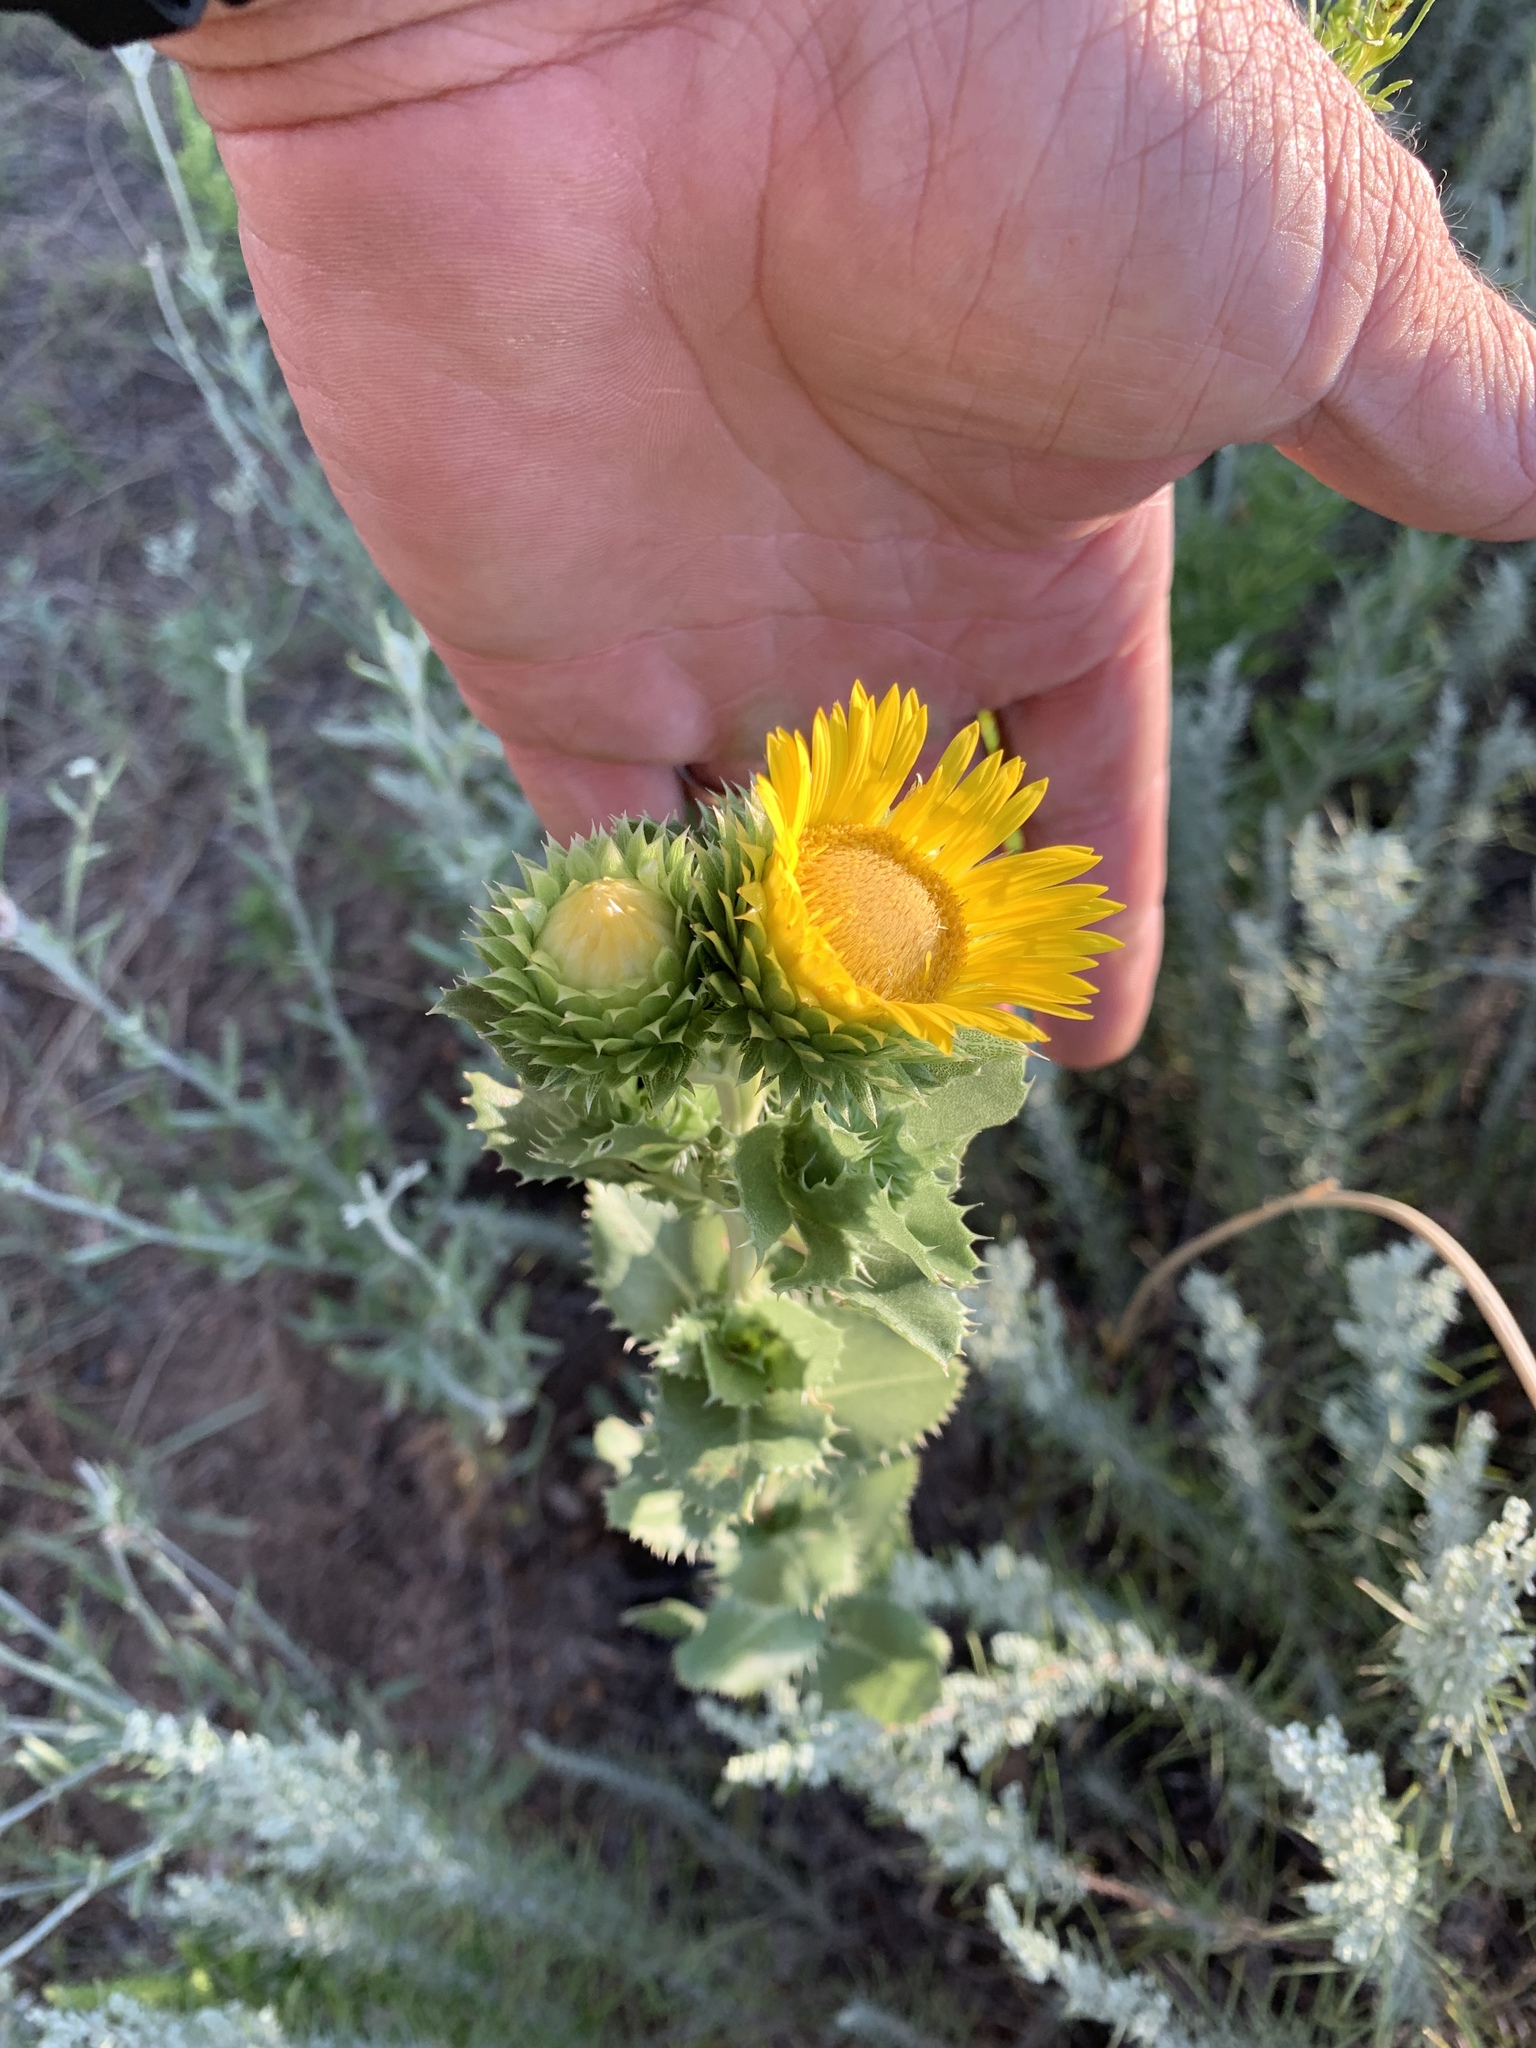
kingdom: Plantae
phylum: Tracheophyta
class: Magnoliopsida
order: Asterales
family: Asteraceae
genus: Grindelia
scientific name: Grindelia ciliata
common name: Goldenweed
